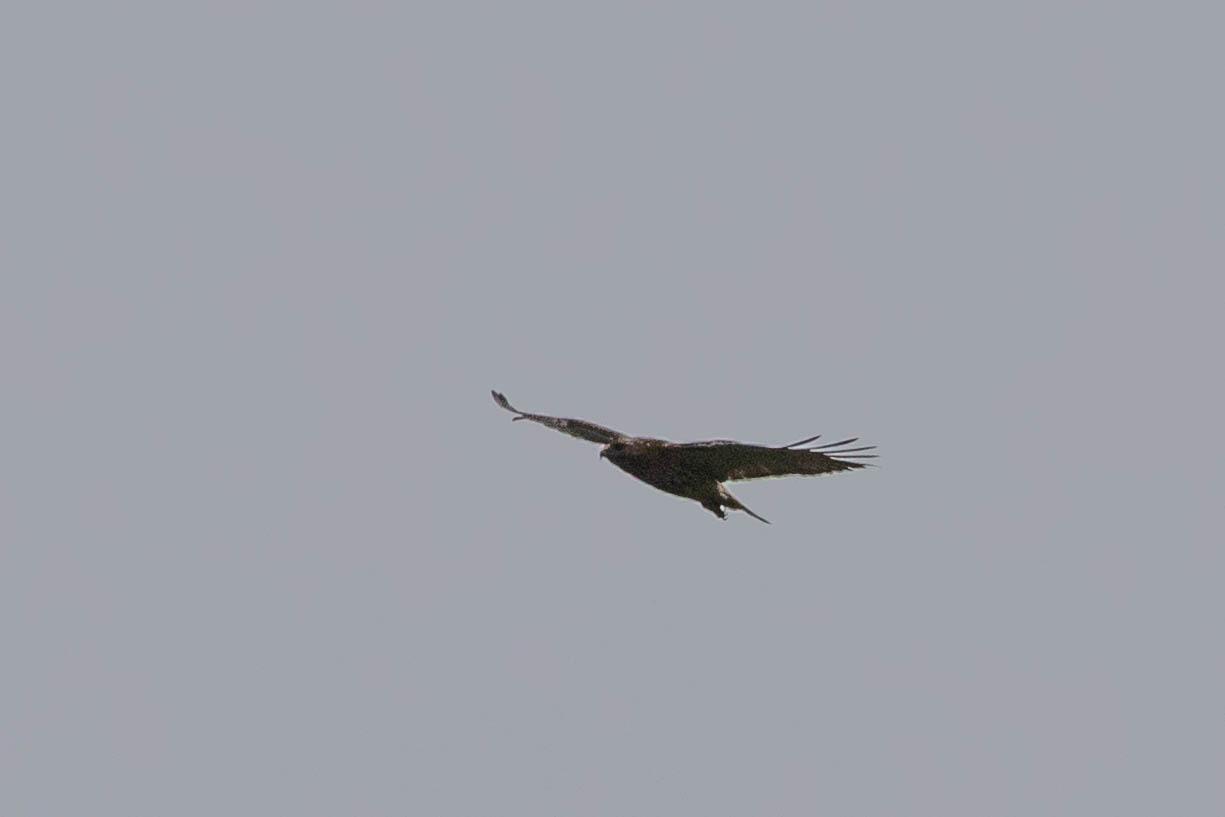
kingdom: Animalia
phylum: Chordata
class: Aves
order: Accipitriformes
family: Accipitridae
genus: Buteo
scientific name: Buteo jamaicensis
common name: Red-tailed hawk
